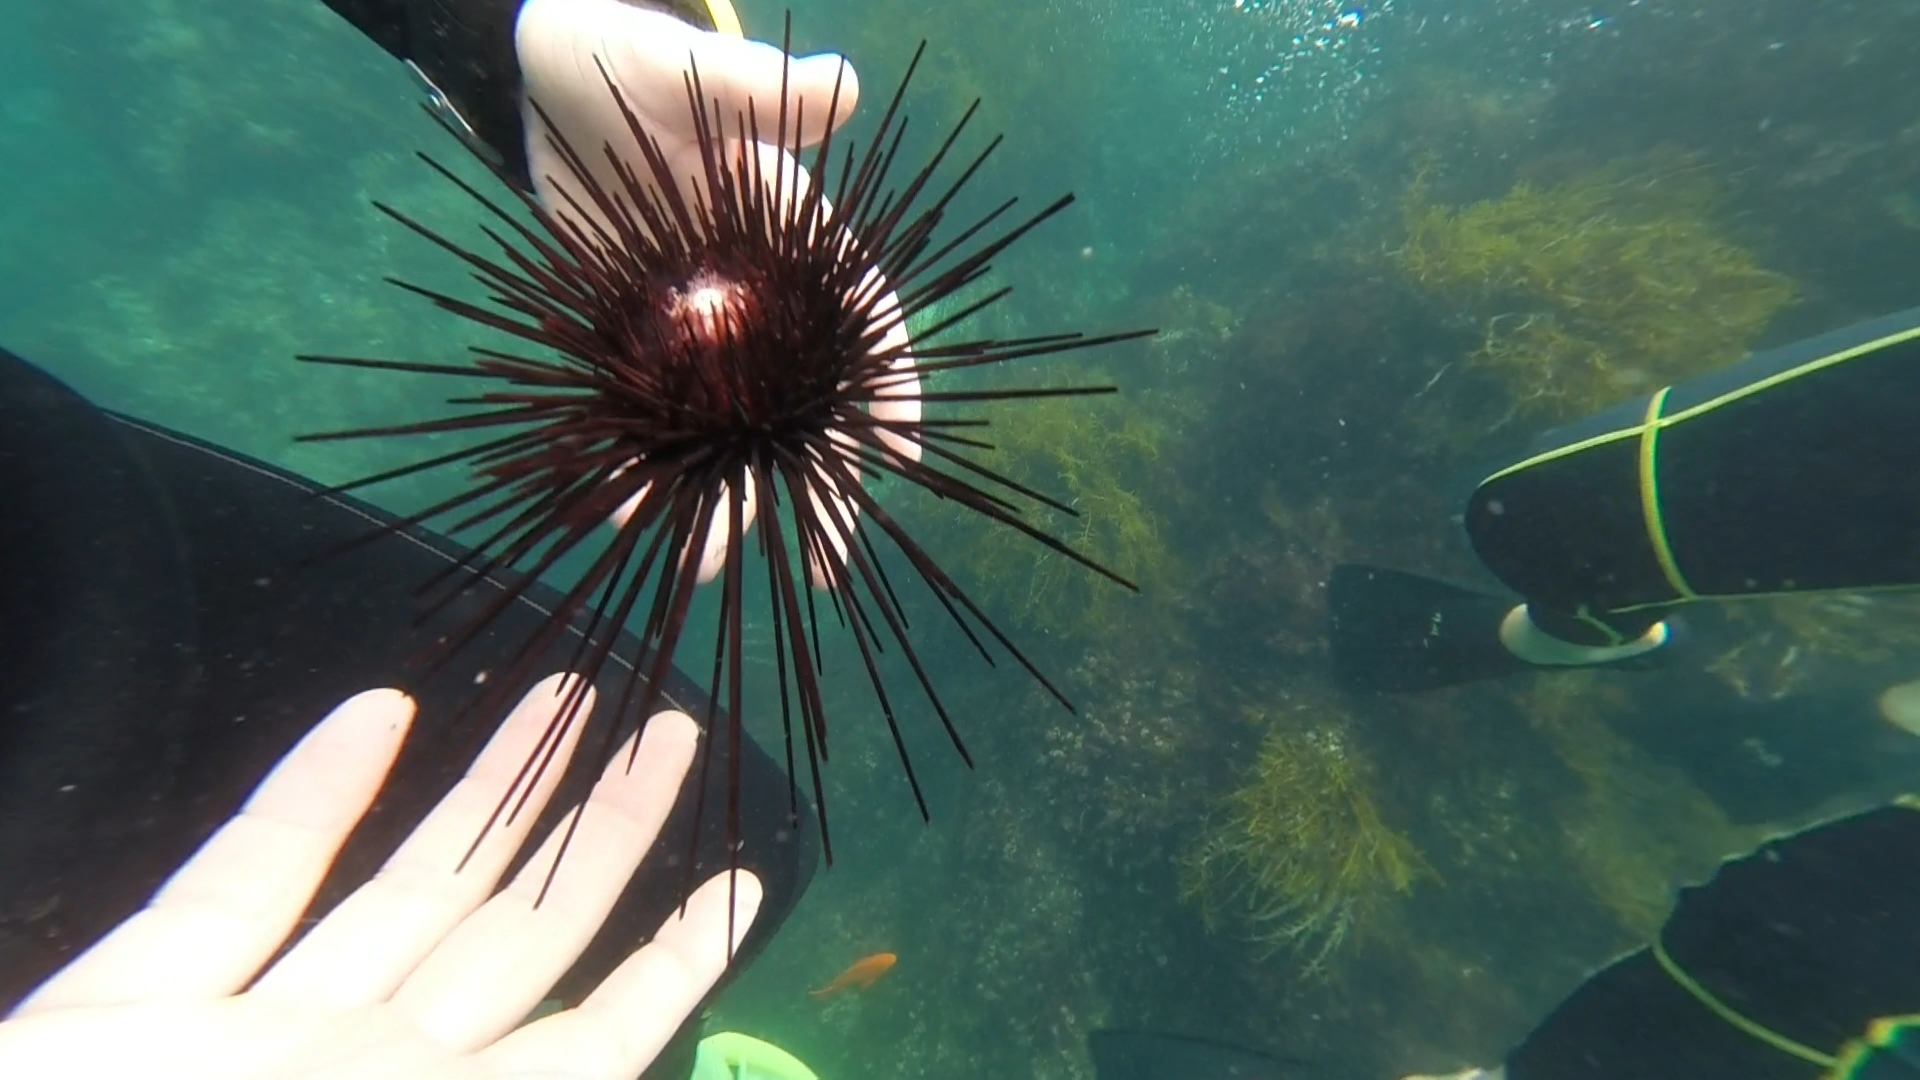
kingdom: Animalia
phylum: Echinodermata
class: Echinoidea
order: Diadematoida
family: Diadematidae
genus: Centrostephanus
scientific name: Centrostephanus coronatus
